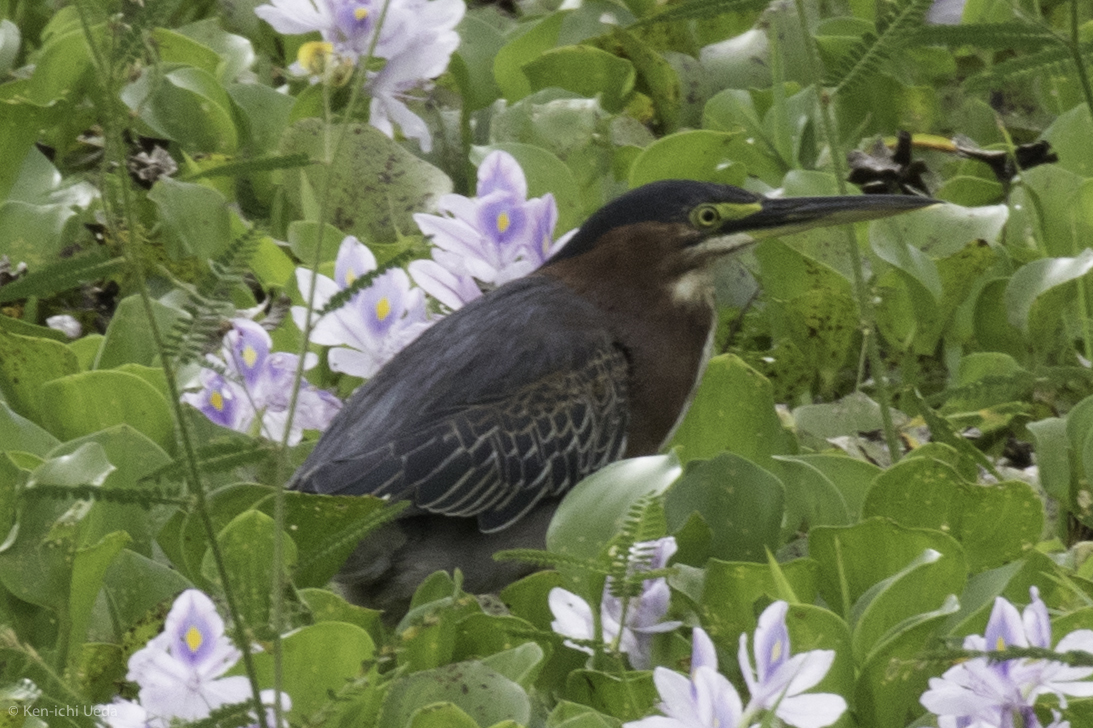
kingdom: Animalia
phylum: Chordata
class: Aves
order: Pelecaniformes
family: Ardeidae
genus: Butorides
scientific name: Butorides virescens
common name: Green heron
